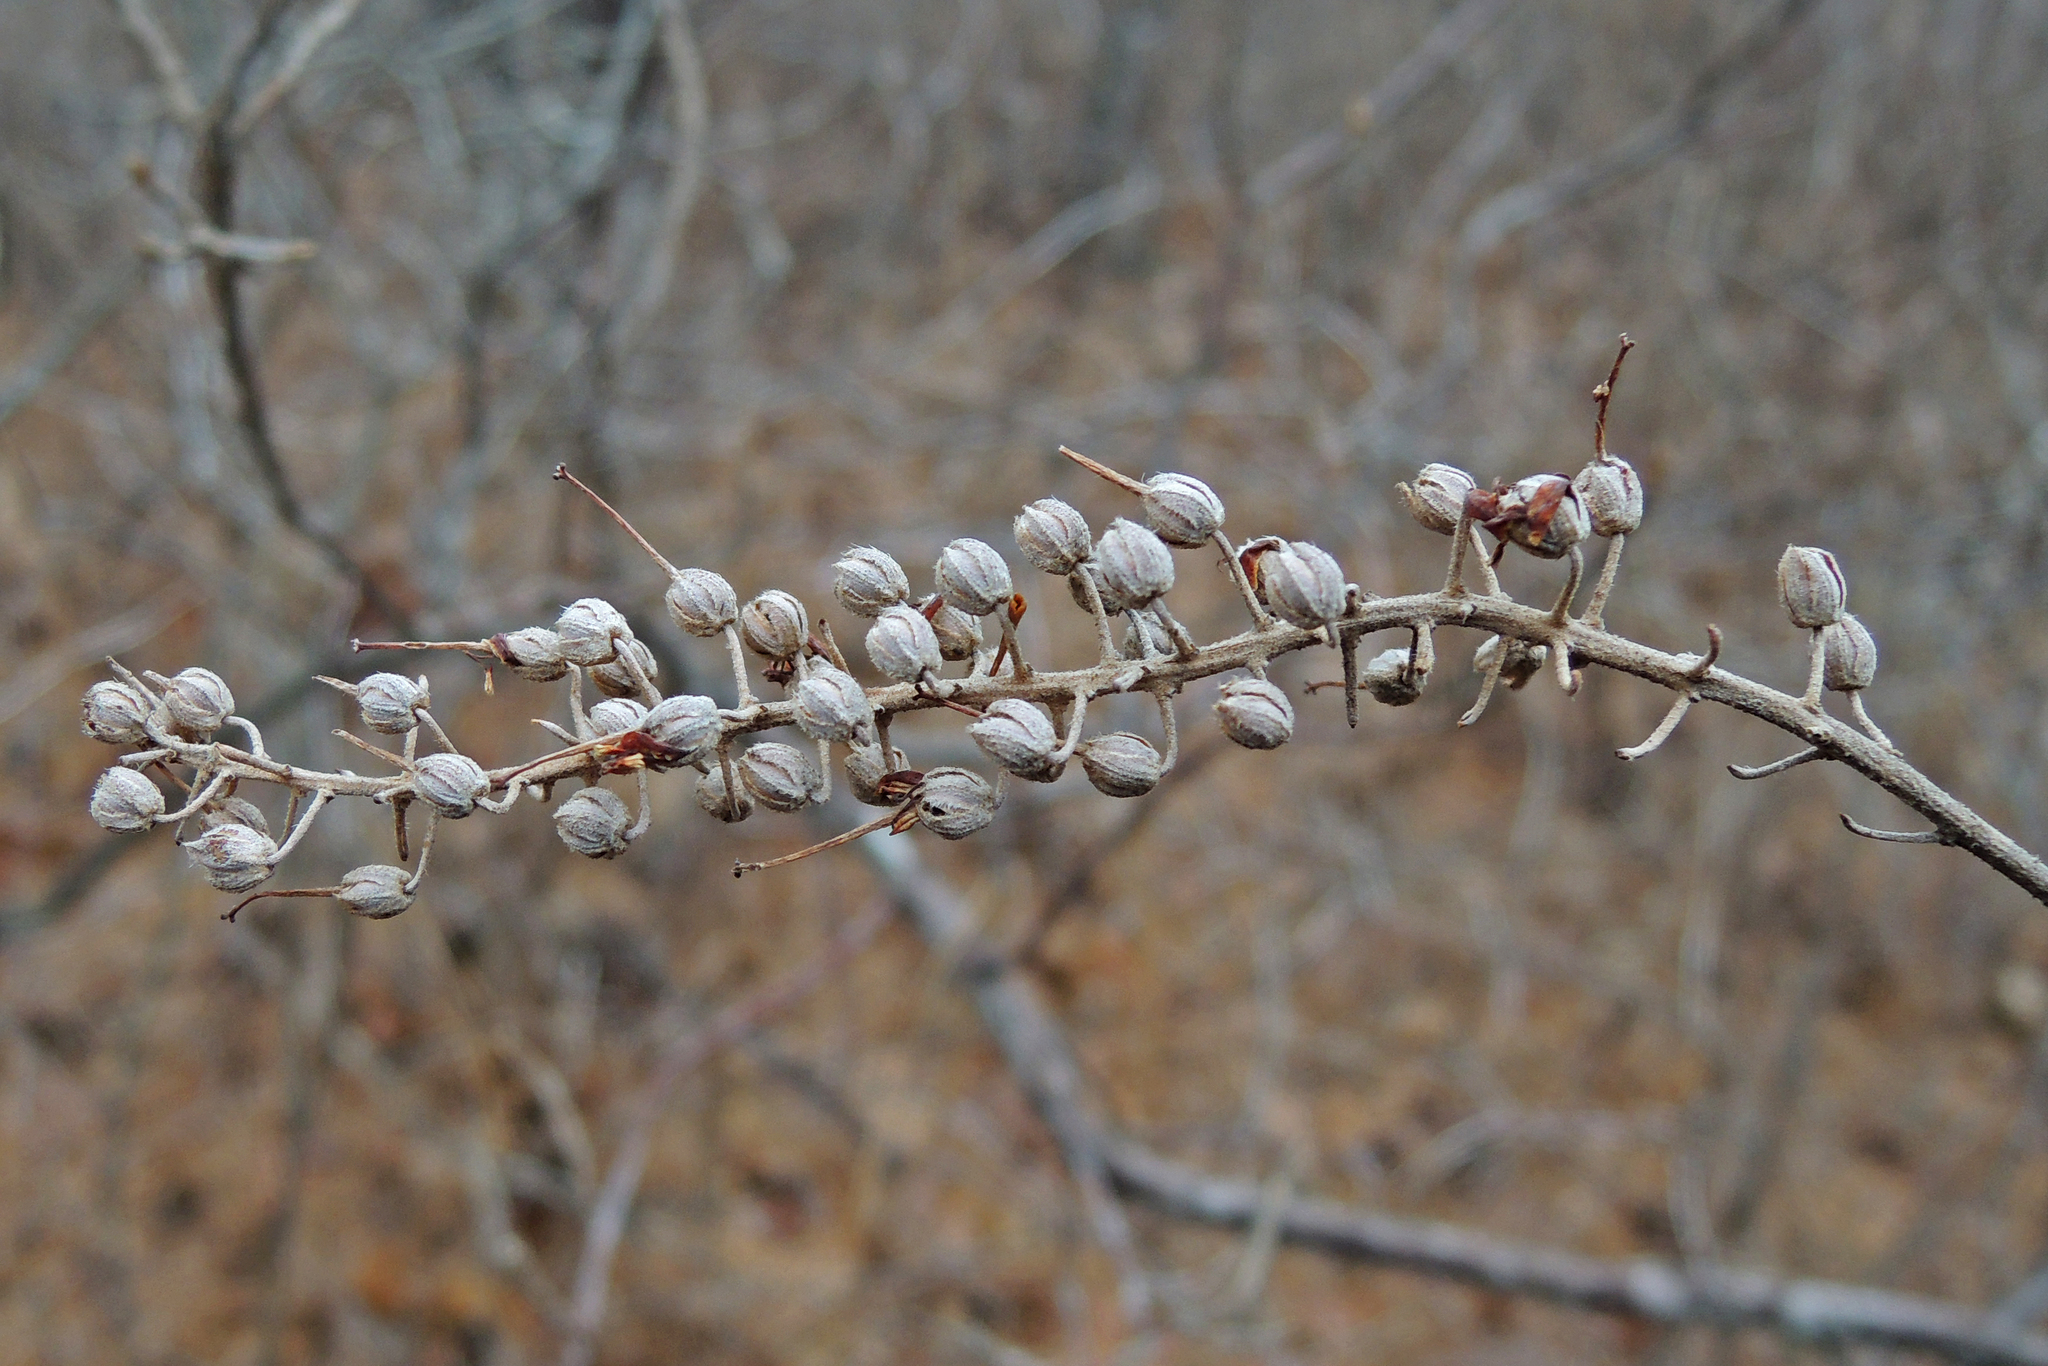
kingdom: Plantae
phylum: Tracheophyta
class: Magnoliopsida
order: Ericales
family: Clethraceae
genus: Clethra
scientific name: Clethra alnifolia
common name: Sweet pepperbush
